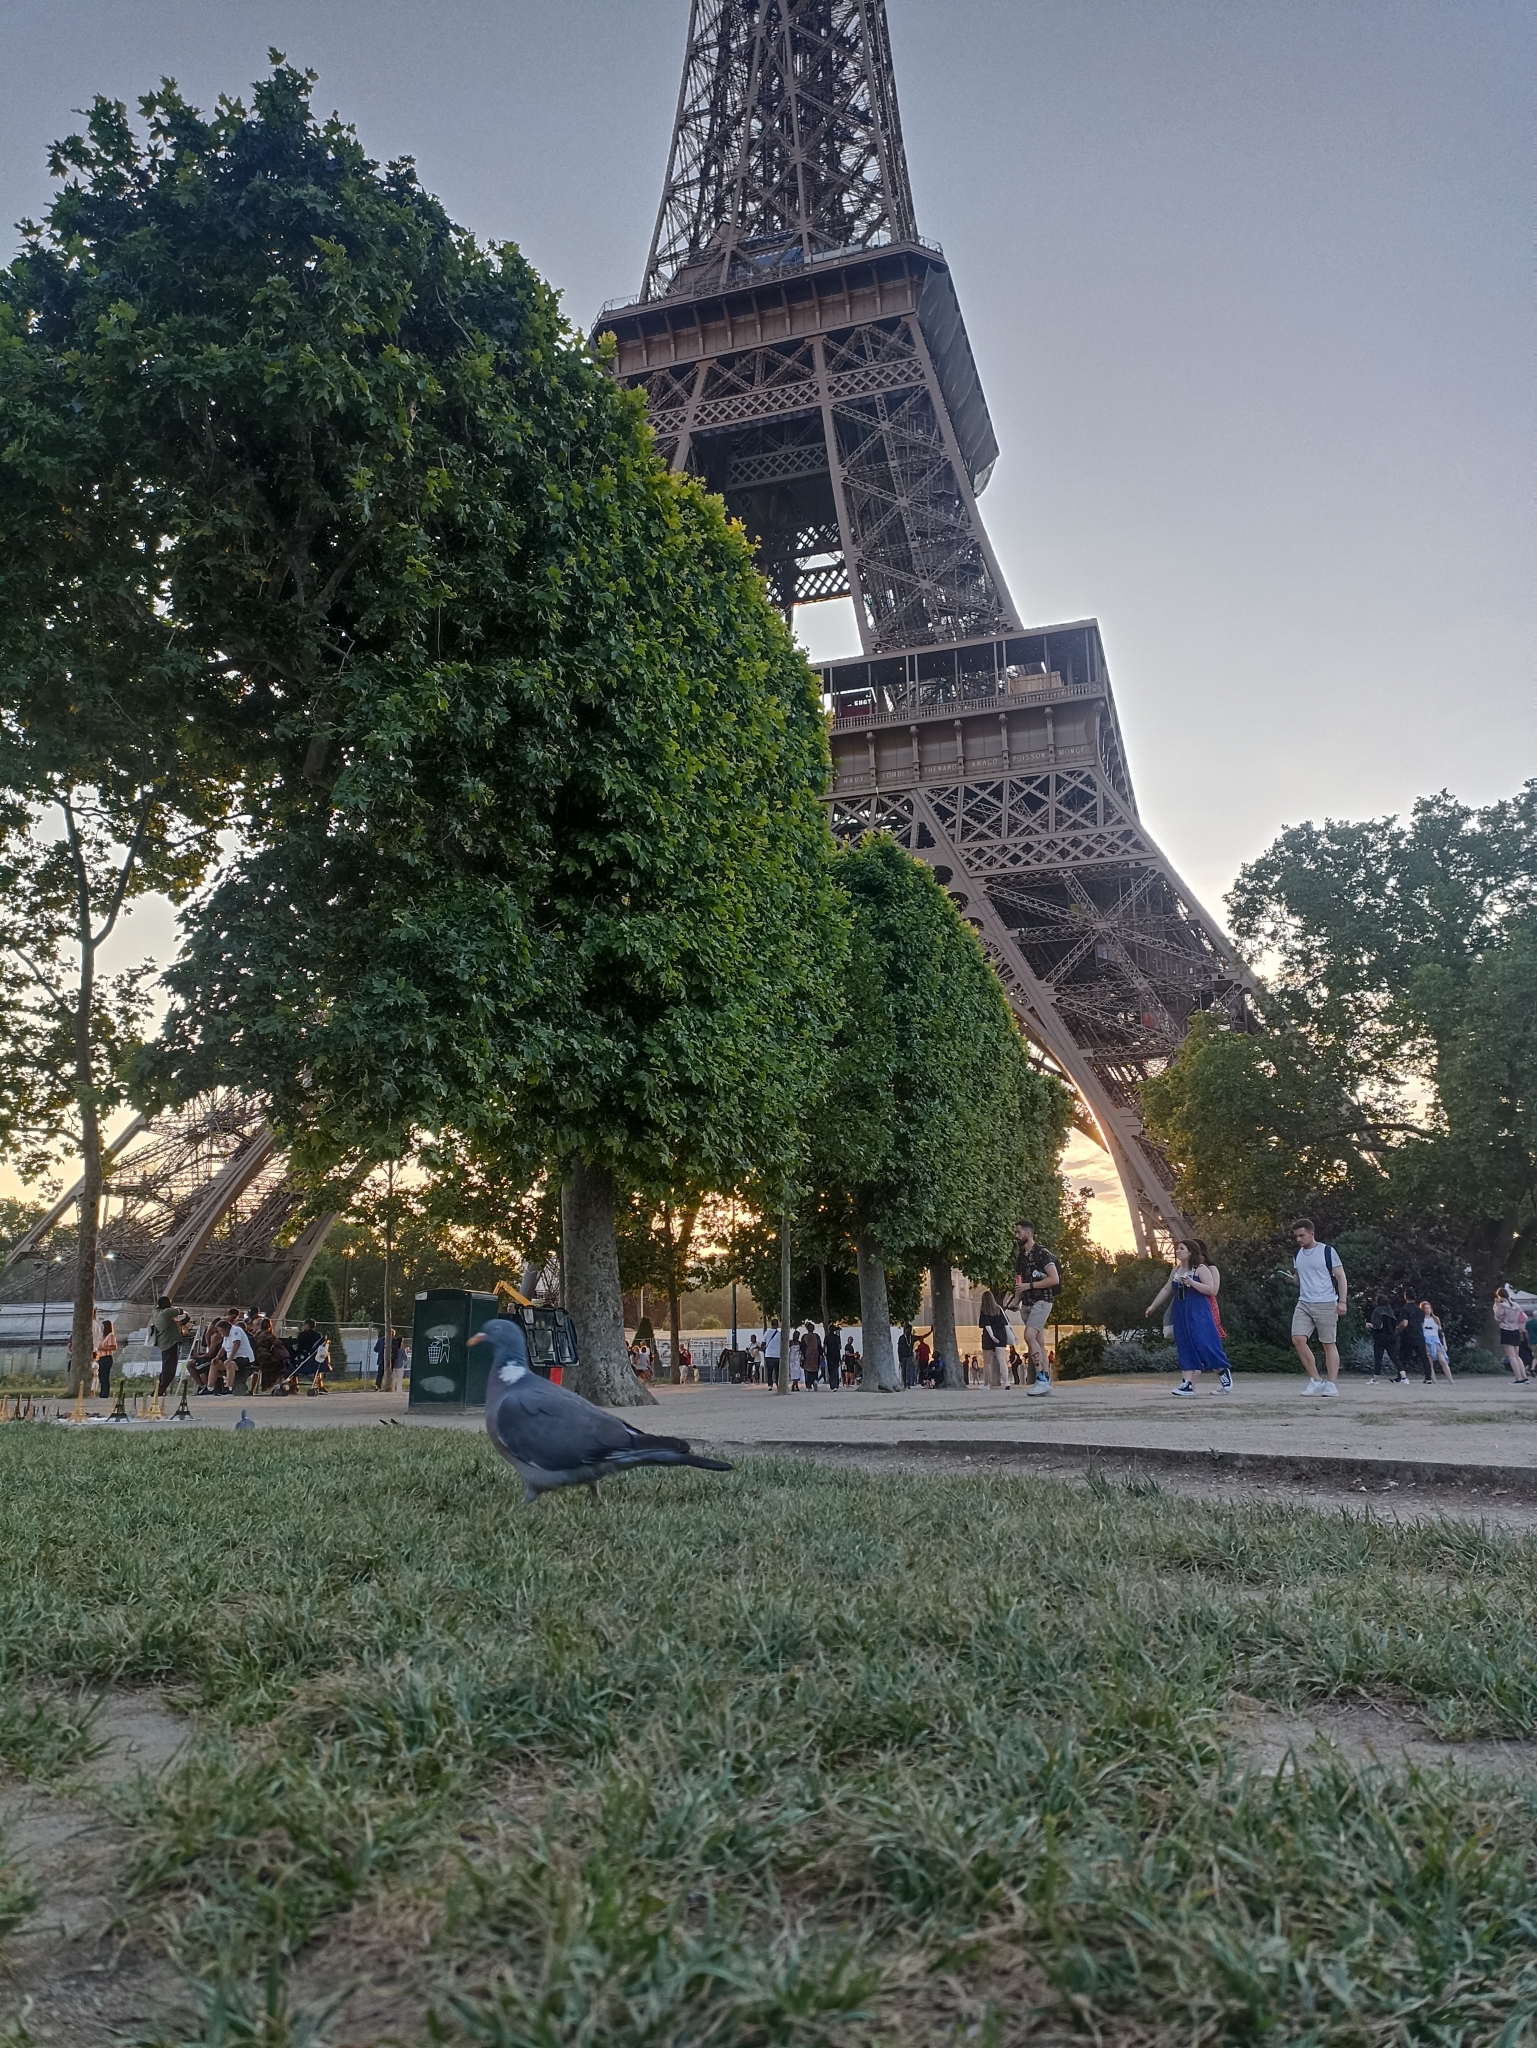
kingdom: Animalia
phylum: Chordata
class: Aves
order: Columbiformes
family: Columbidae
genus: Columba
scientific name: Columba palumbus
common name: Common wood pigeon
